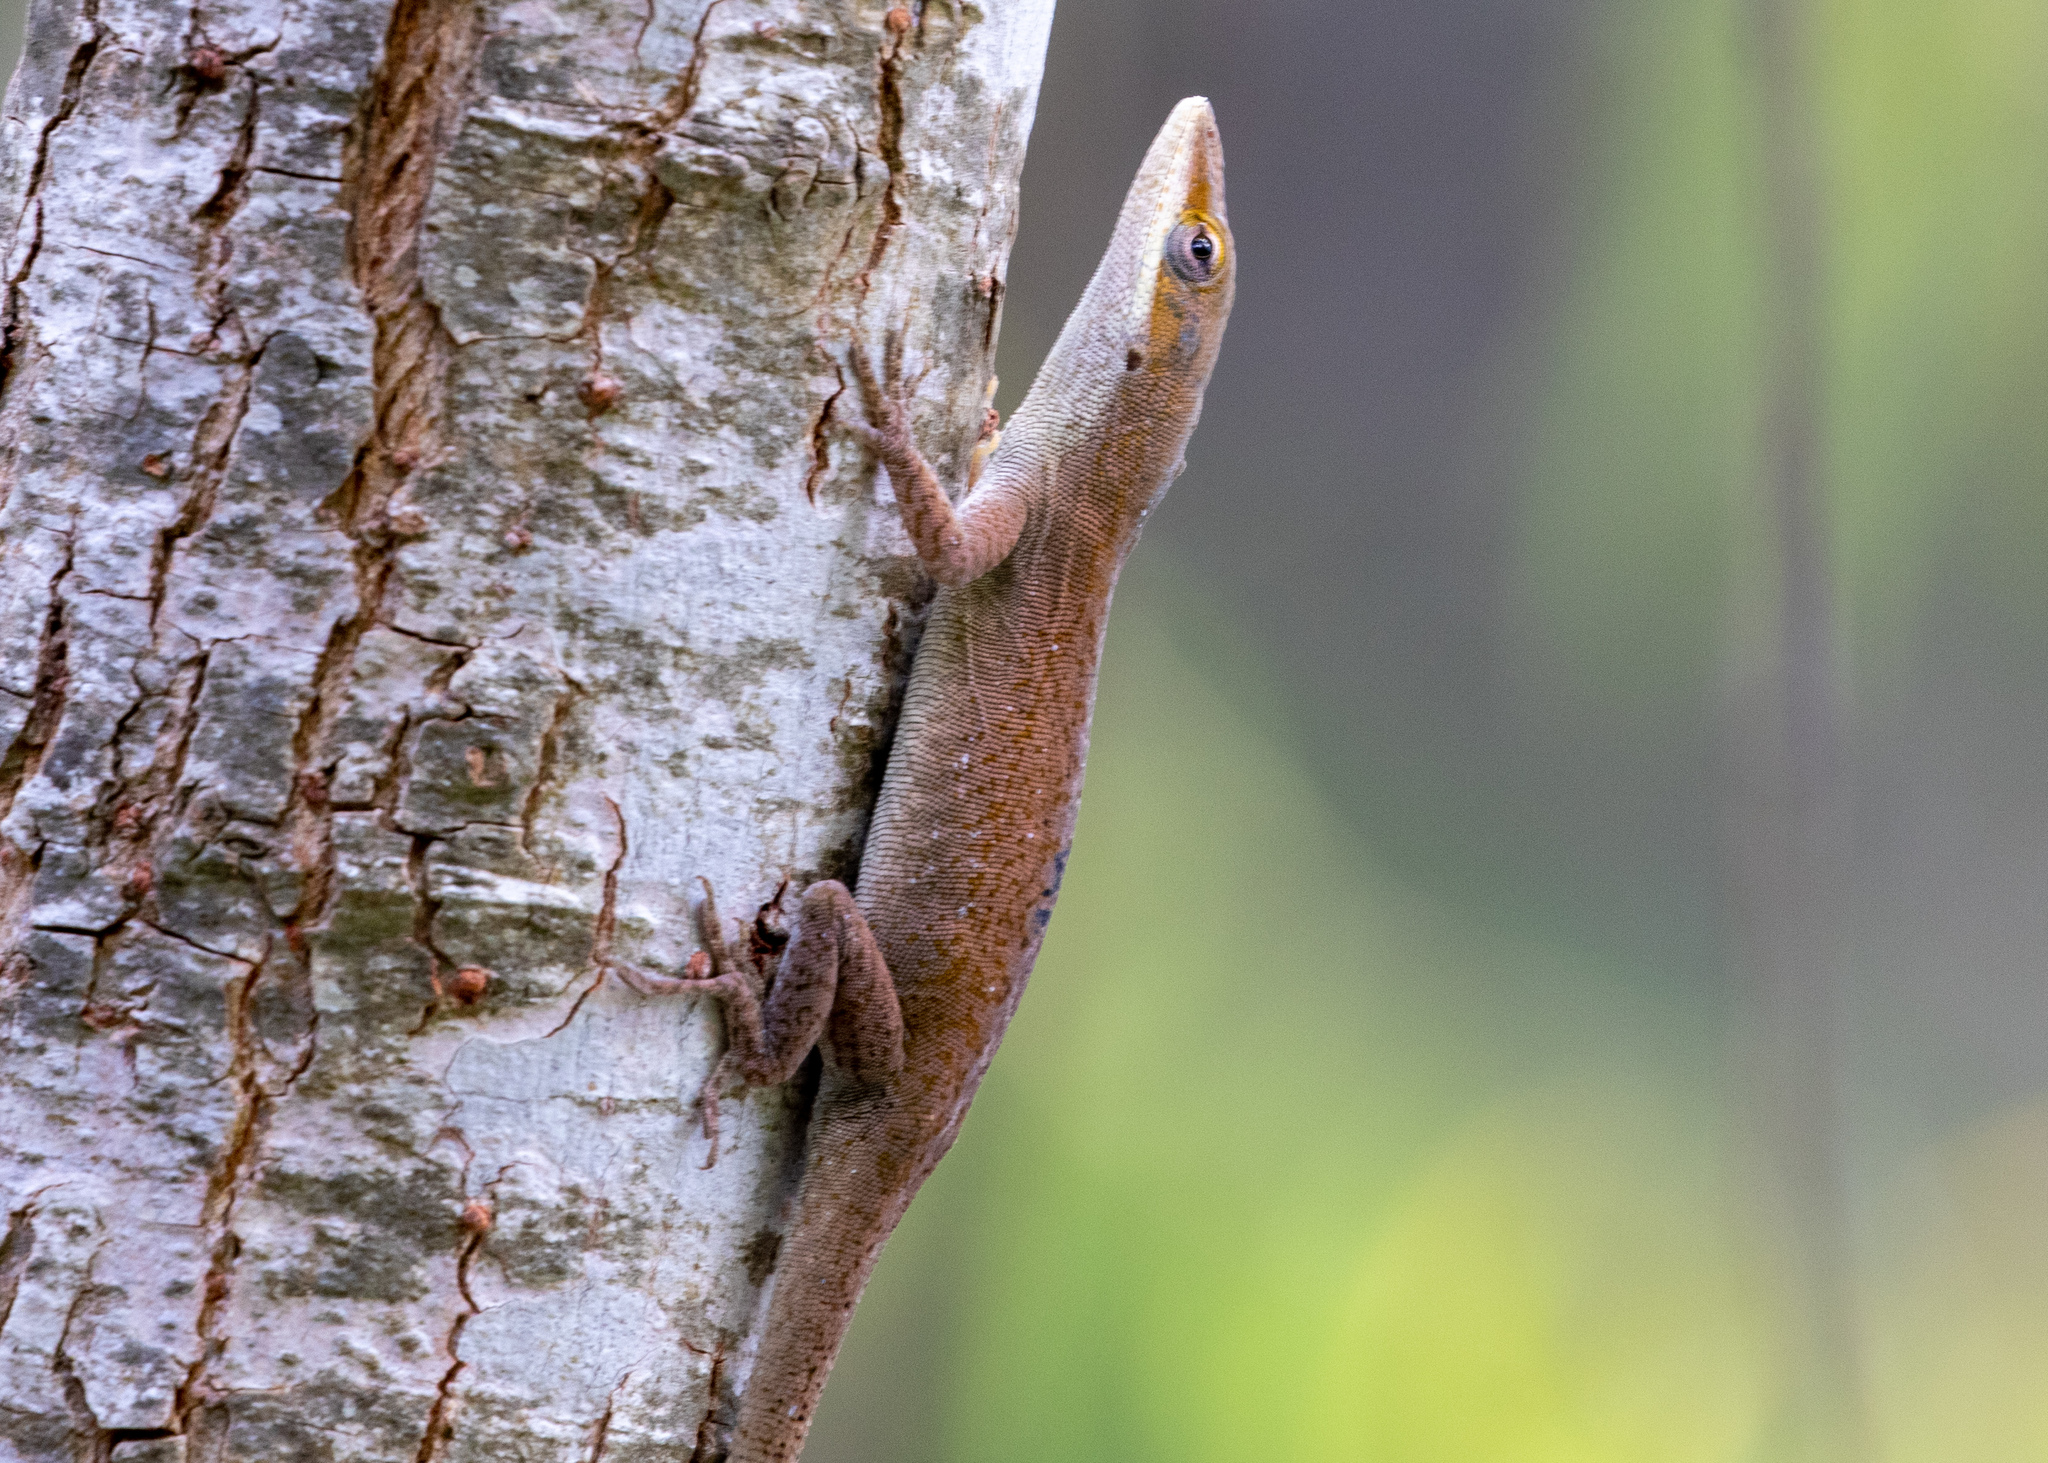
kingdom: Animalia
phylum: Chordata
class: Squamata
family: Dactyloidae
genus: Anolis
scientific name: Anolis carolinensis
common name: Green anole
